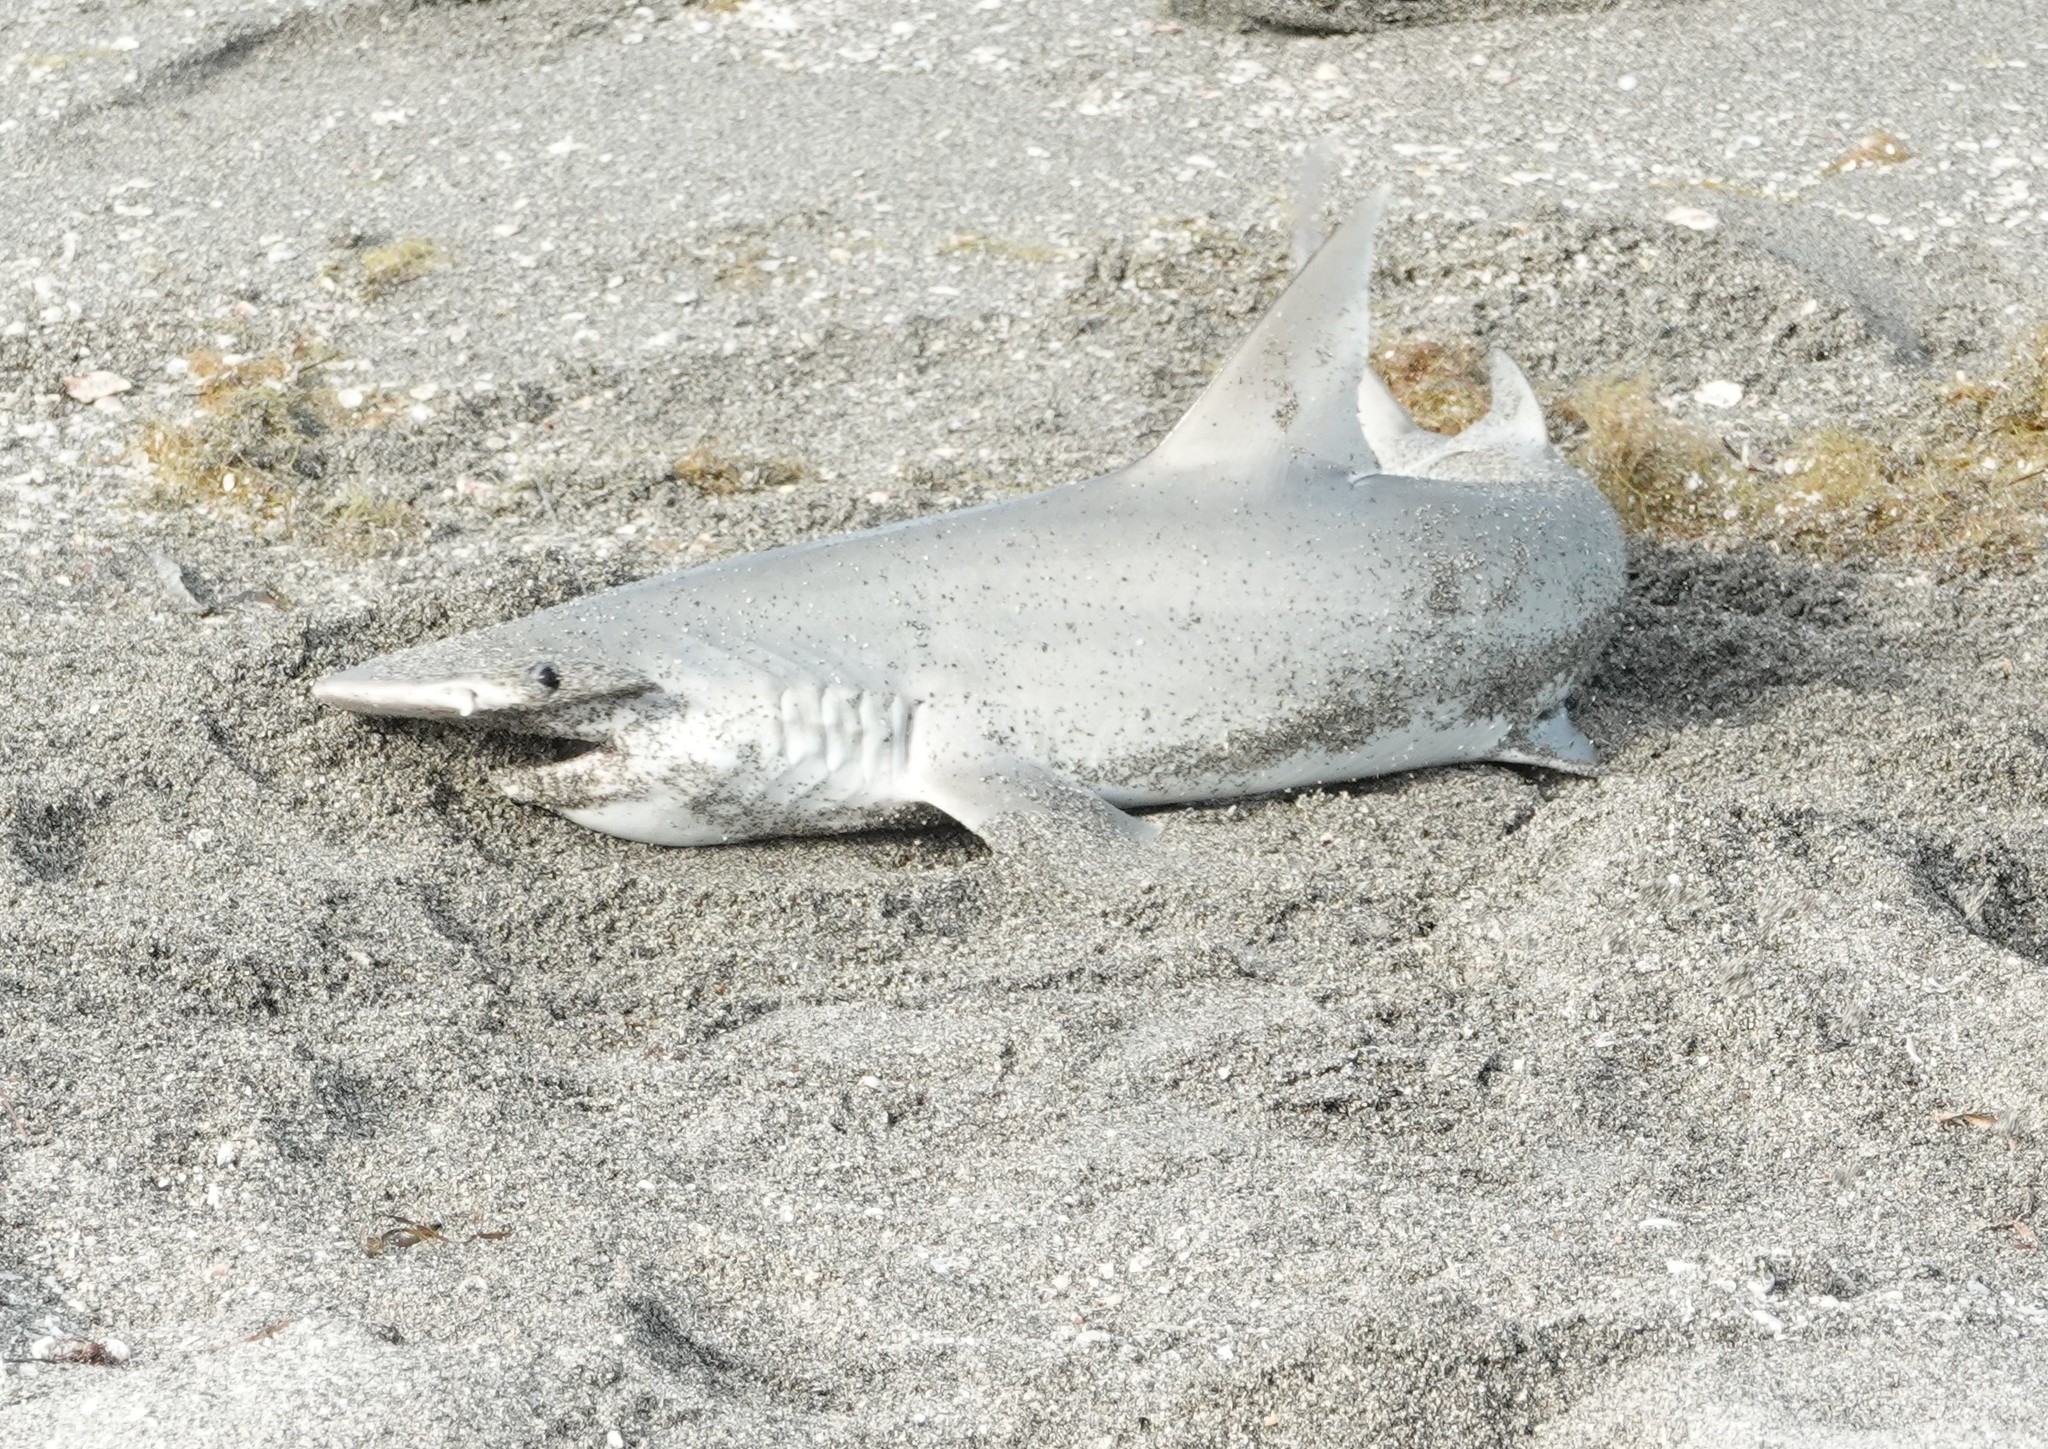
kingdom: Animalia
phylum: Chordata
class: Elasmobranchii
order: Carcharhiniformes
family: Sphyrnidae
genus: Sphyrna
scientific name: Sphyrna tiburo
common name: Bonnethead
